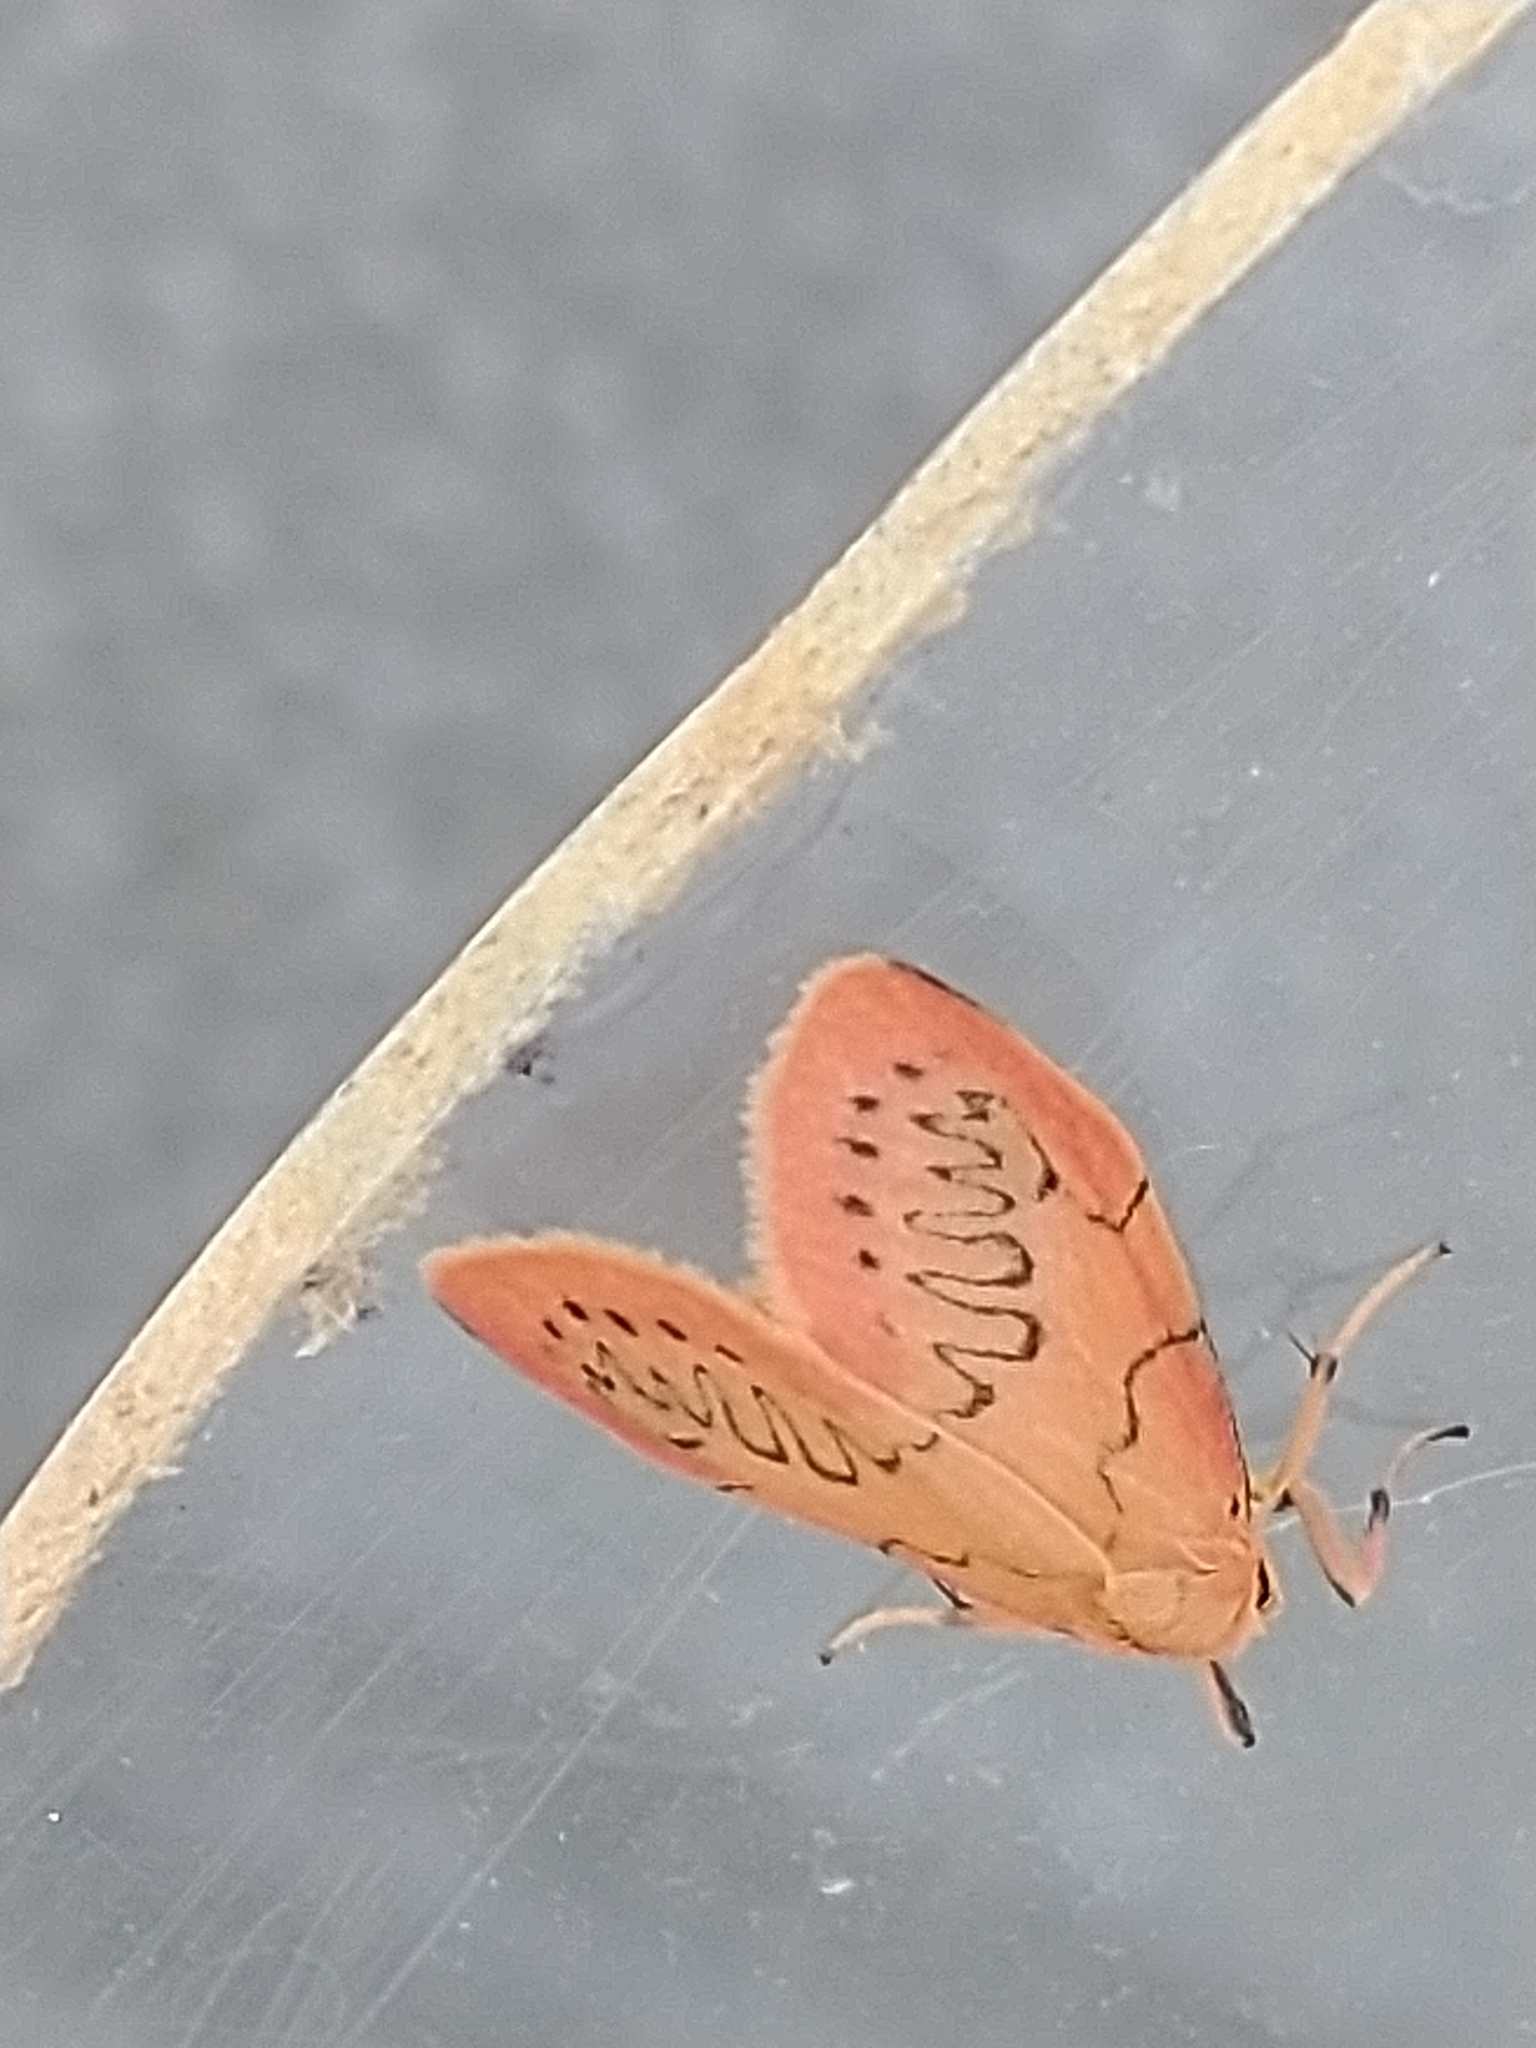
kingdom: Animalia
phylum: Arthropoda
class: Insecta
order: Lepidoptera
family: Erebidae
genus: Miltochrista
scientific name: Miltochrista miniata
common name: Rosy footman
